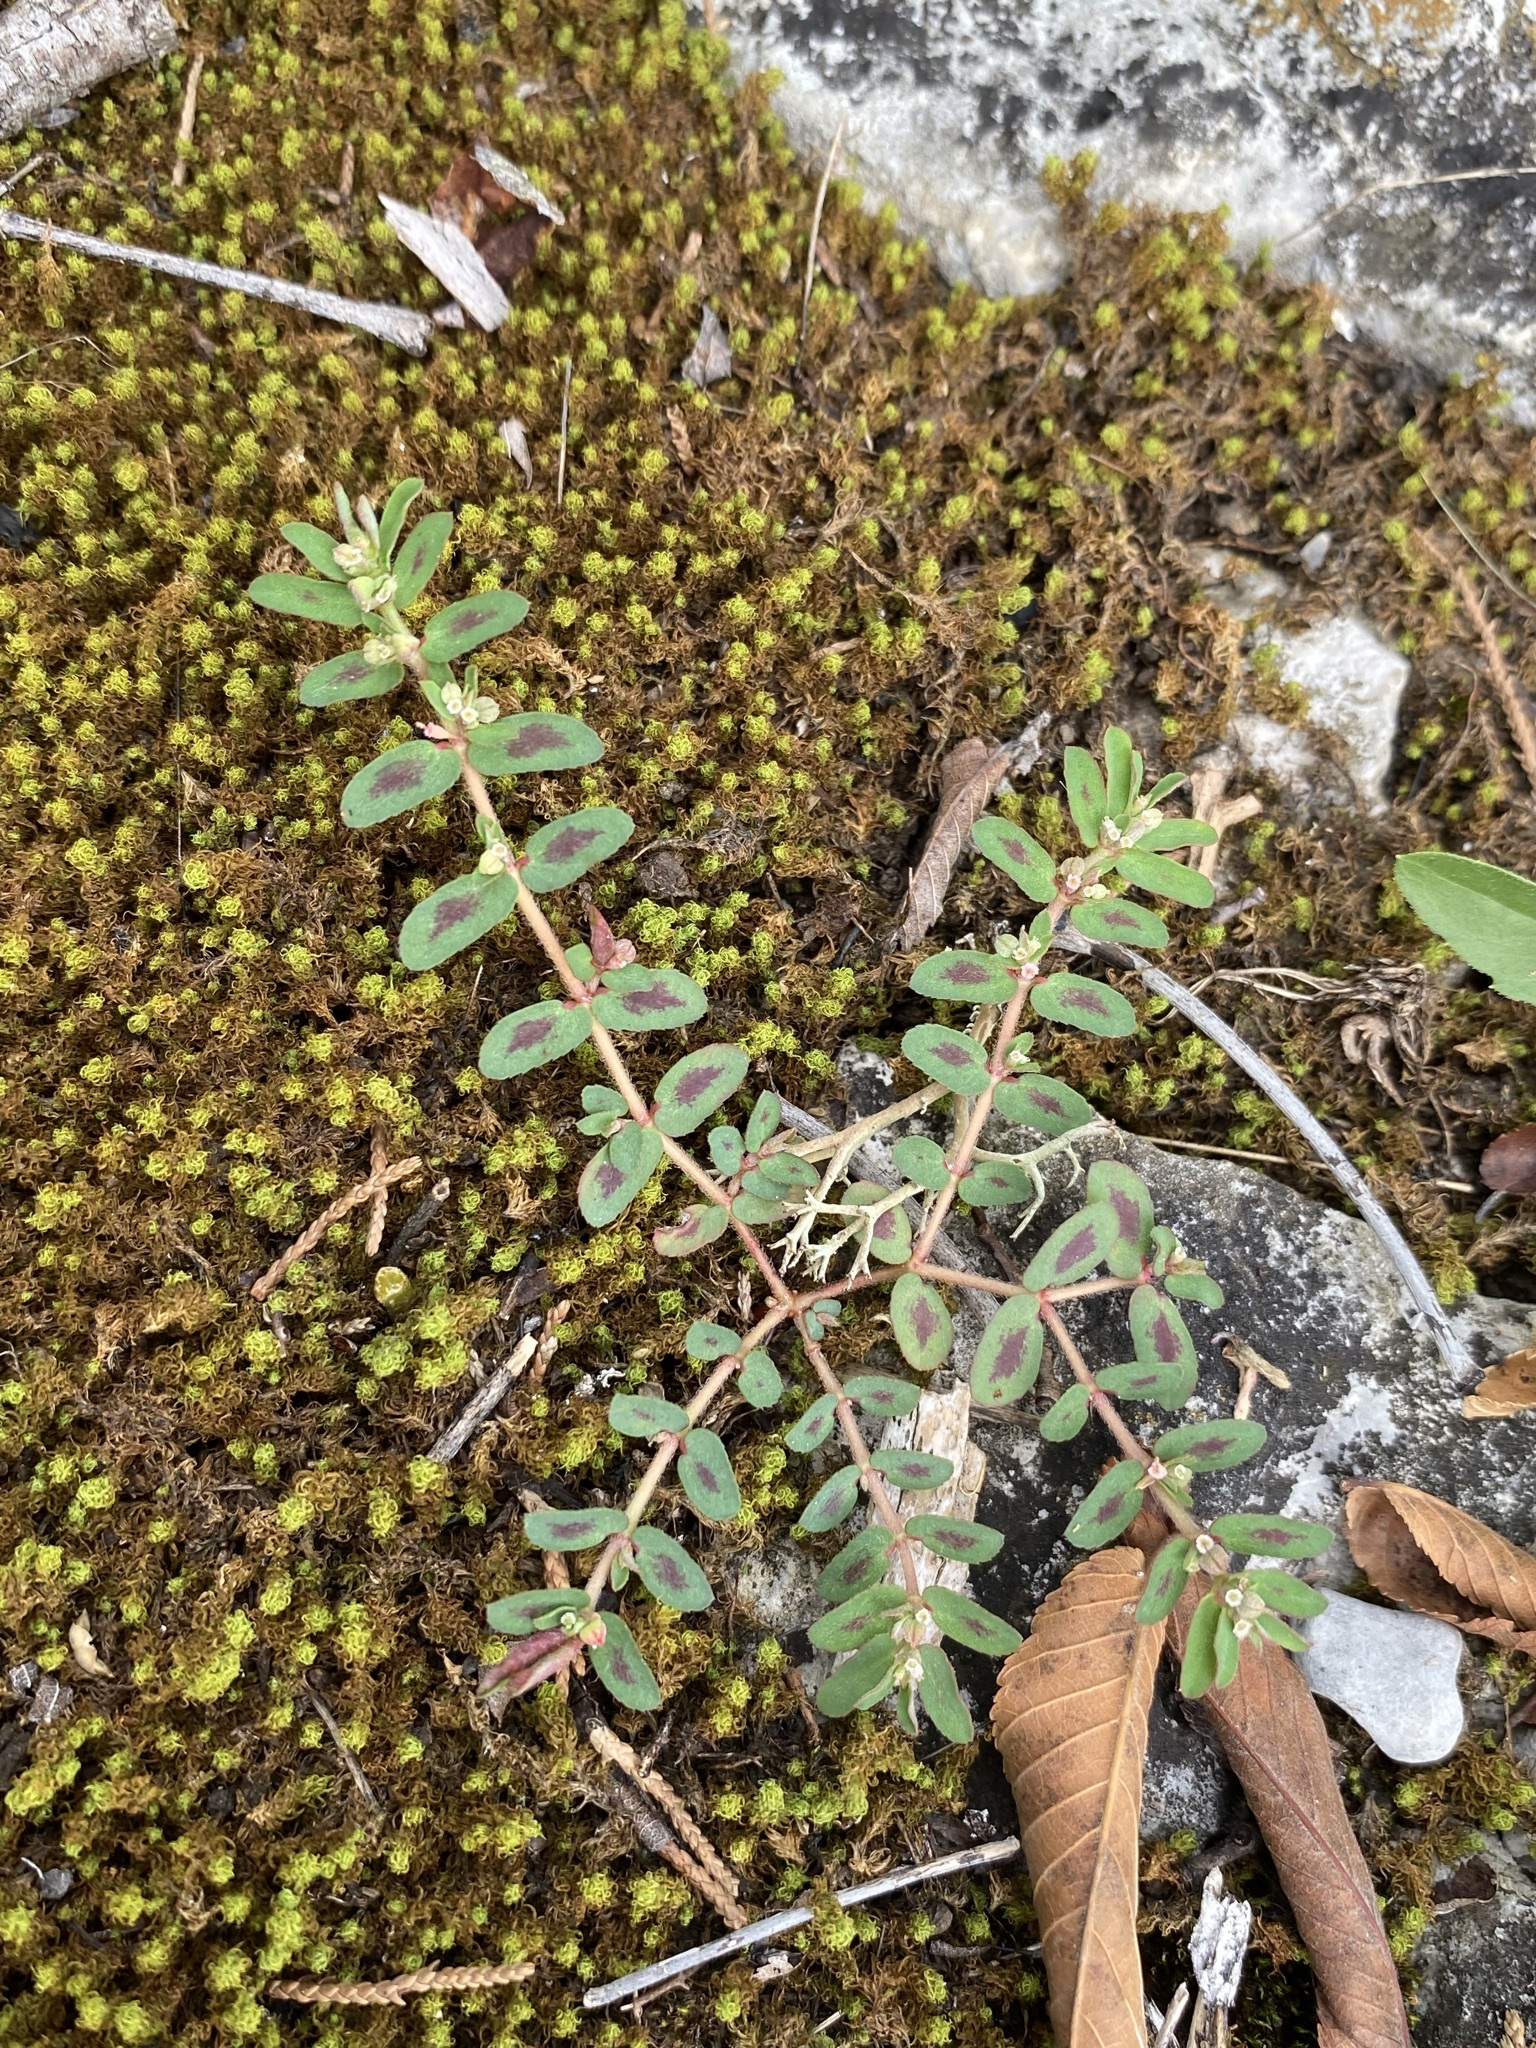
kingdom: Plantae
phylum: Tracheophyta
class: Magnoliopsida
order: Malpighiales
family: Euphorbiaceae
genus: Euphorbia
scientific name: Euphorbia maculata
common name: Spotted spurge
